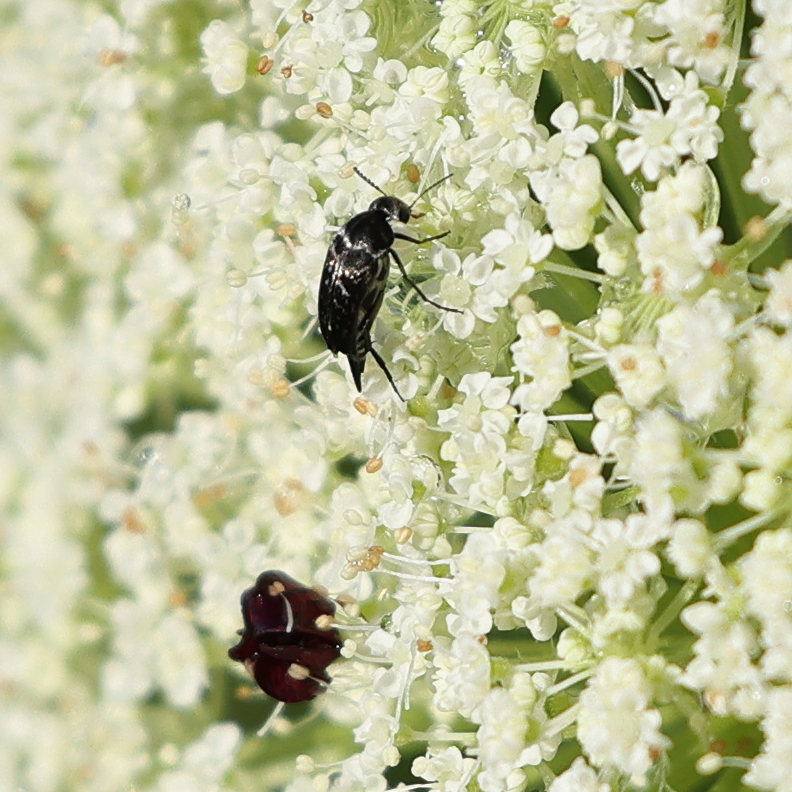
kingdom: Animalia
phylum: Arthropoda
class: Insecta
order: Coleoptera
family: Mordellidae
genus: Mordella
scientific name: Mordella marginata
